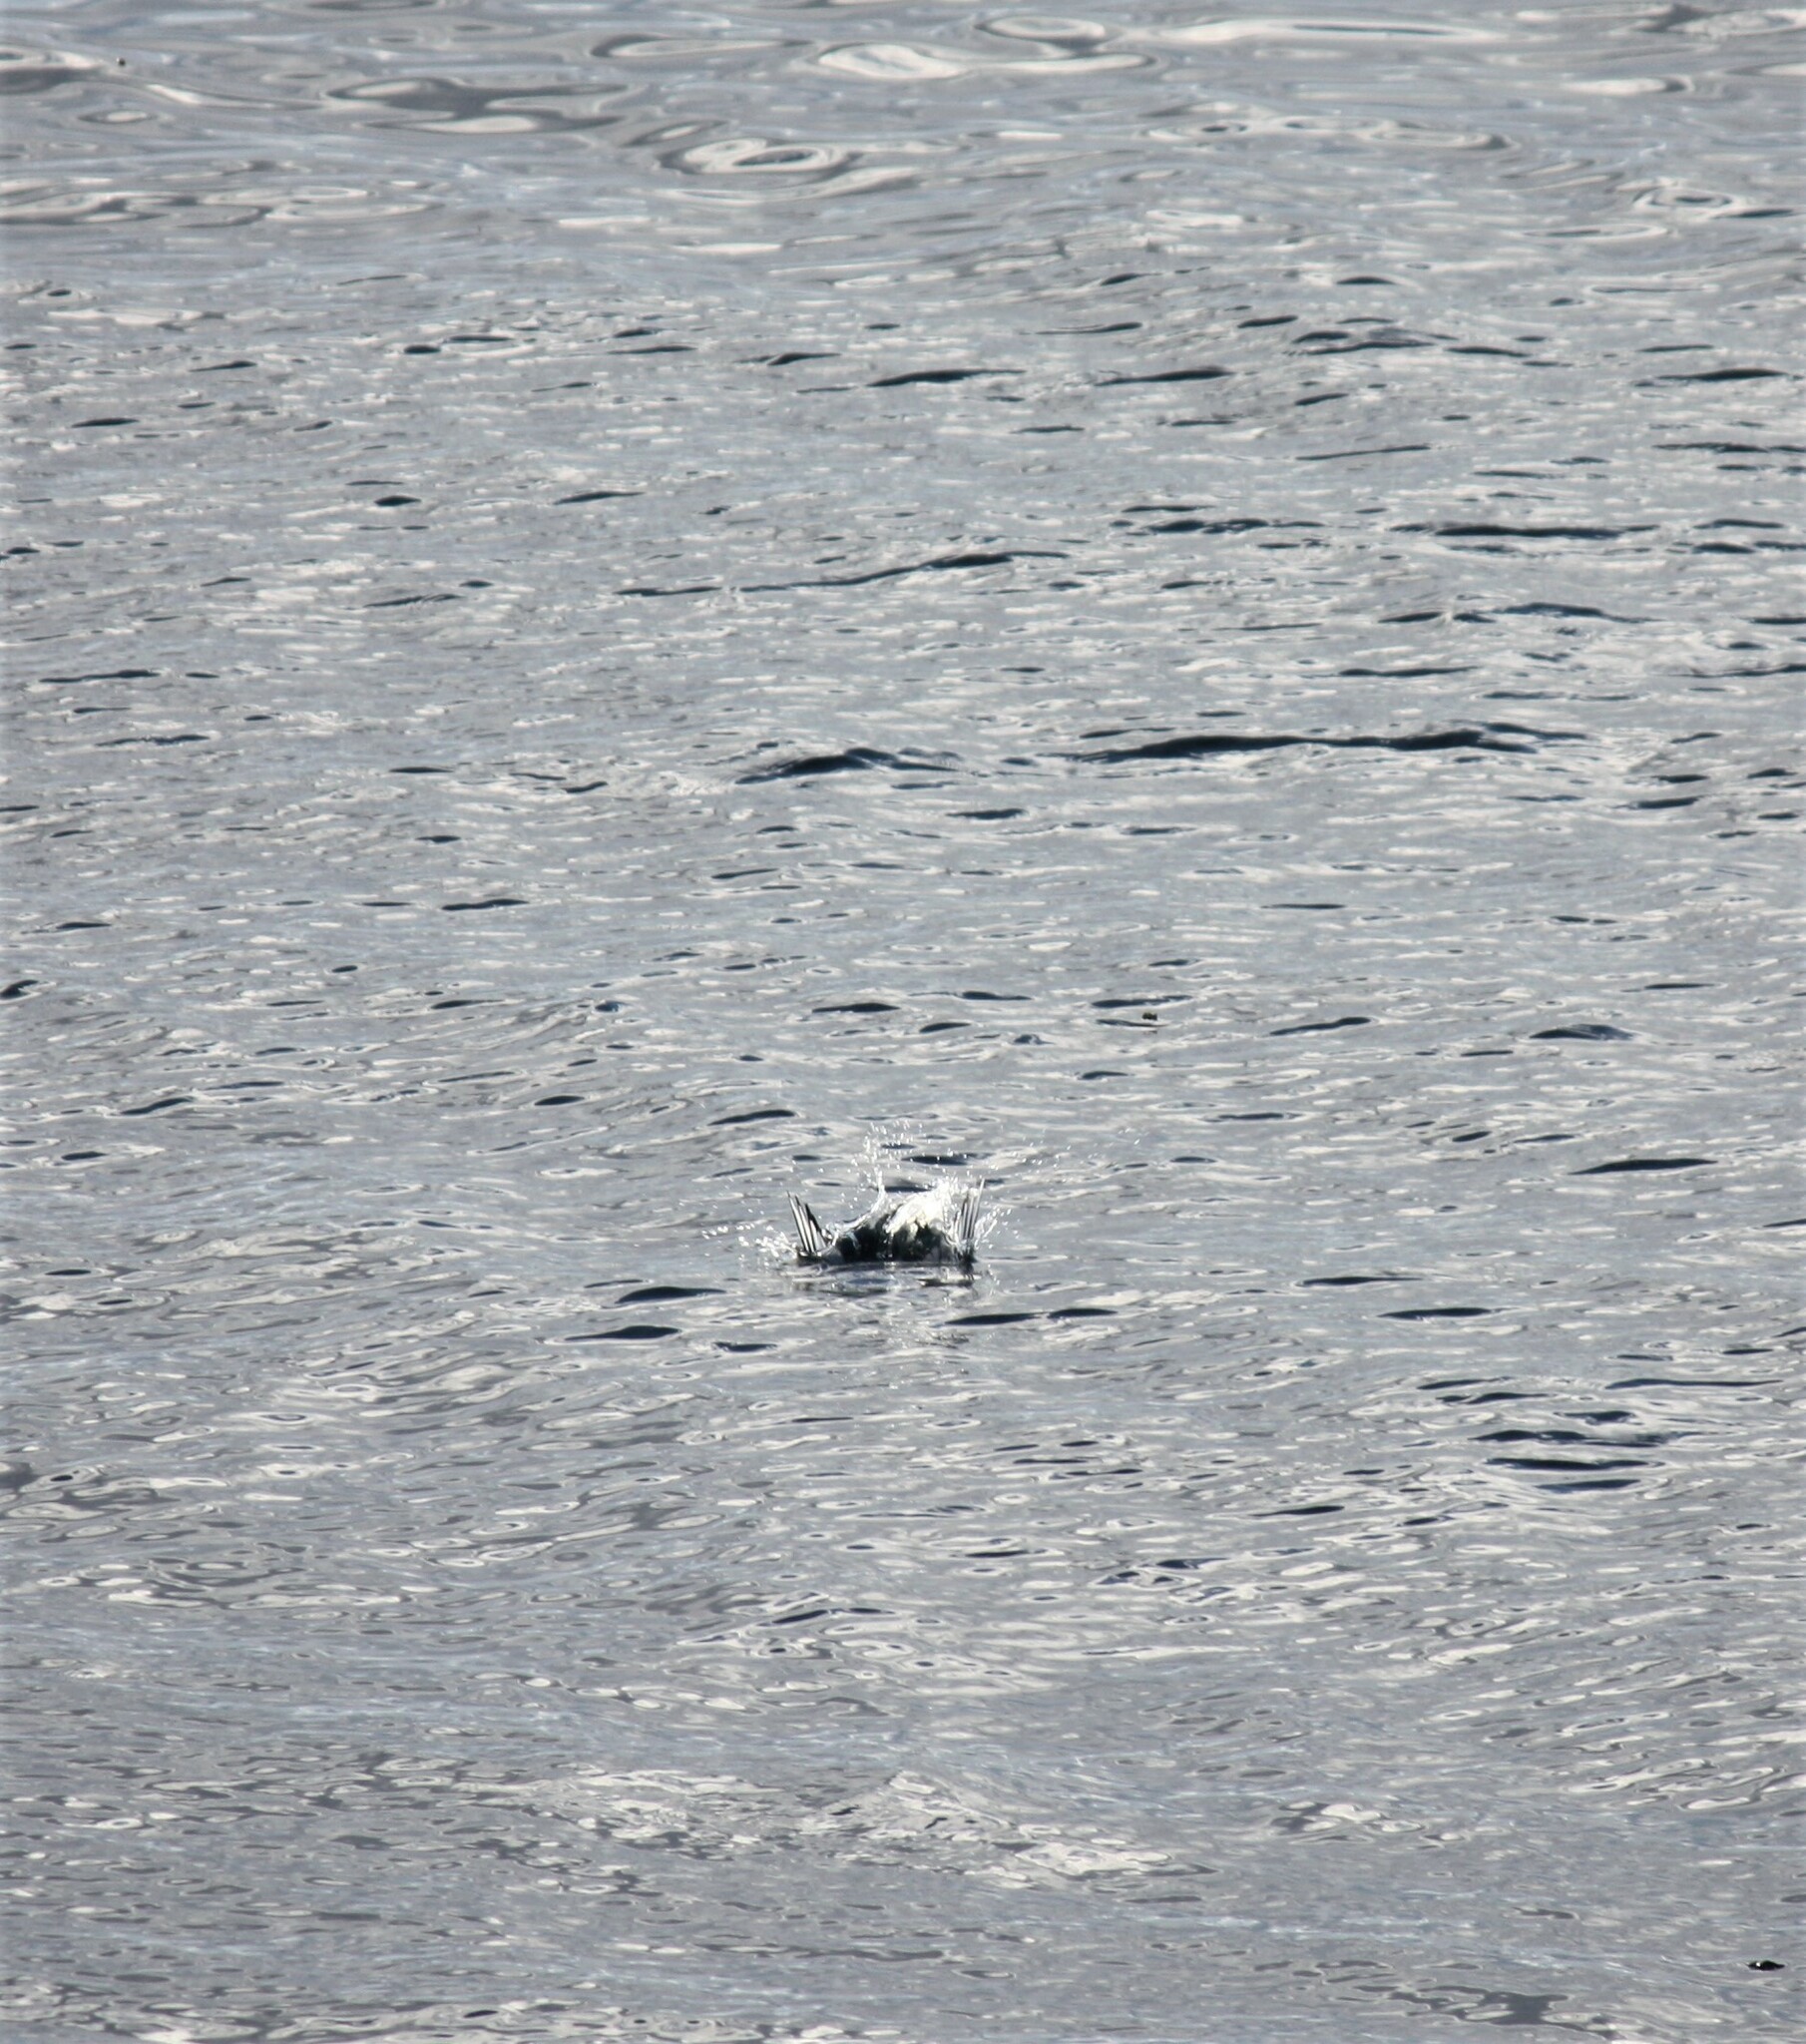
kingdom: Animalia
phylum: Chordata
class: Aves
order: Charadriiformes
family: Laridae
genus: Chroicocephalus
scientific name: Chroicocephalus philadelphia
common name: Bonaparte's gull
